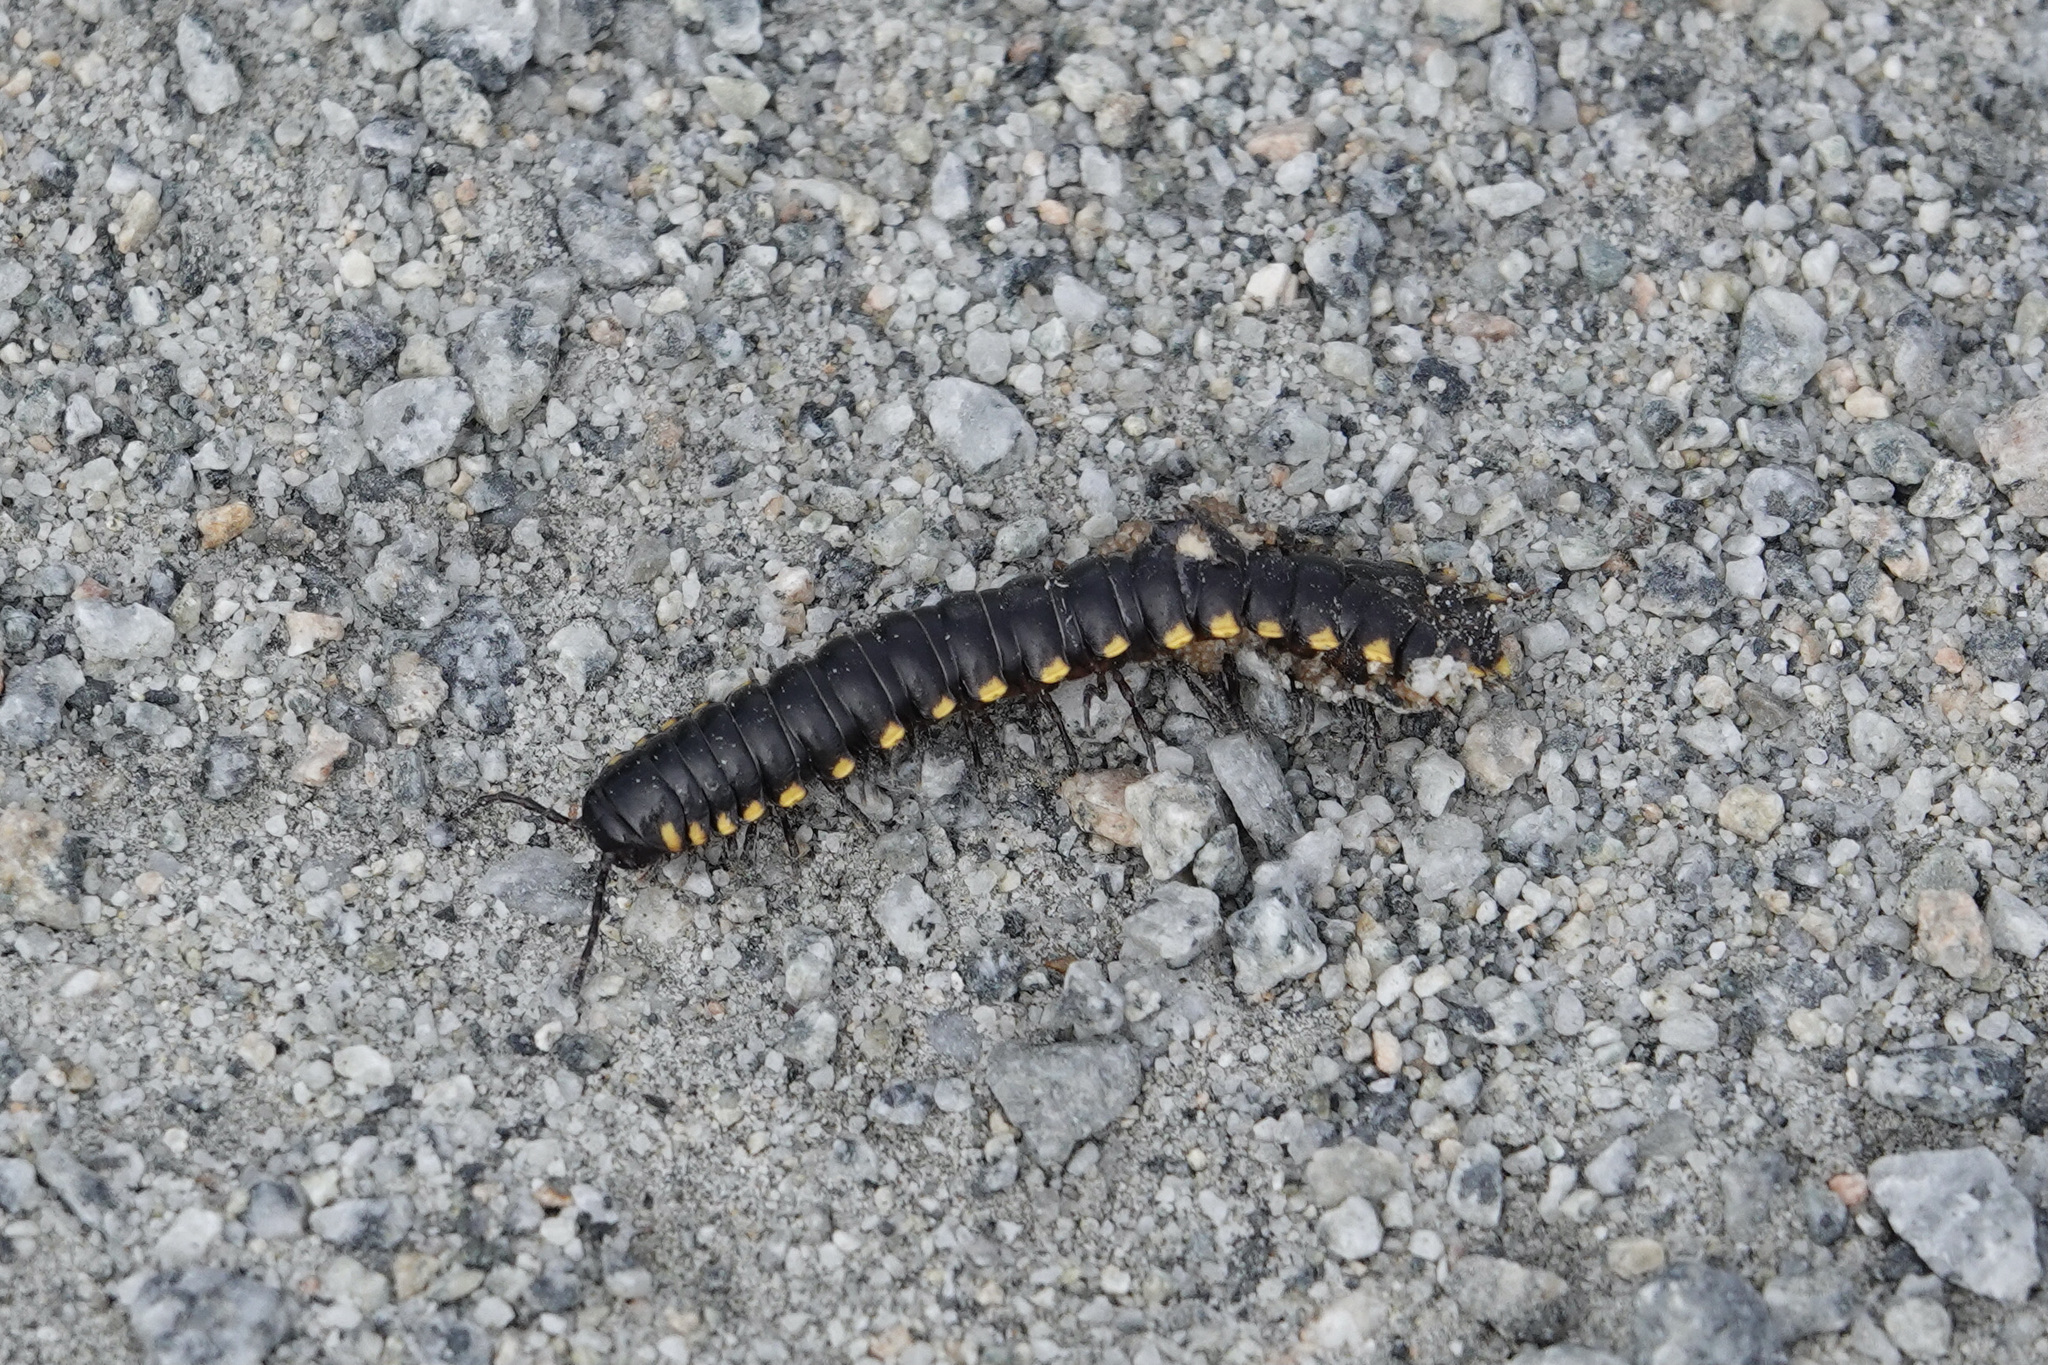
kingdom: Animalia
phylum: Arthropoda
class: Diplopoda
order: Polydesmida
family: Xystodesmidae
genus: Harpaphe
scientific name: Harpaphe haydeniana
